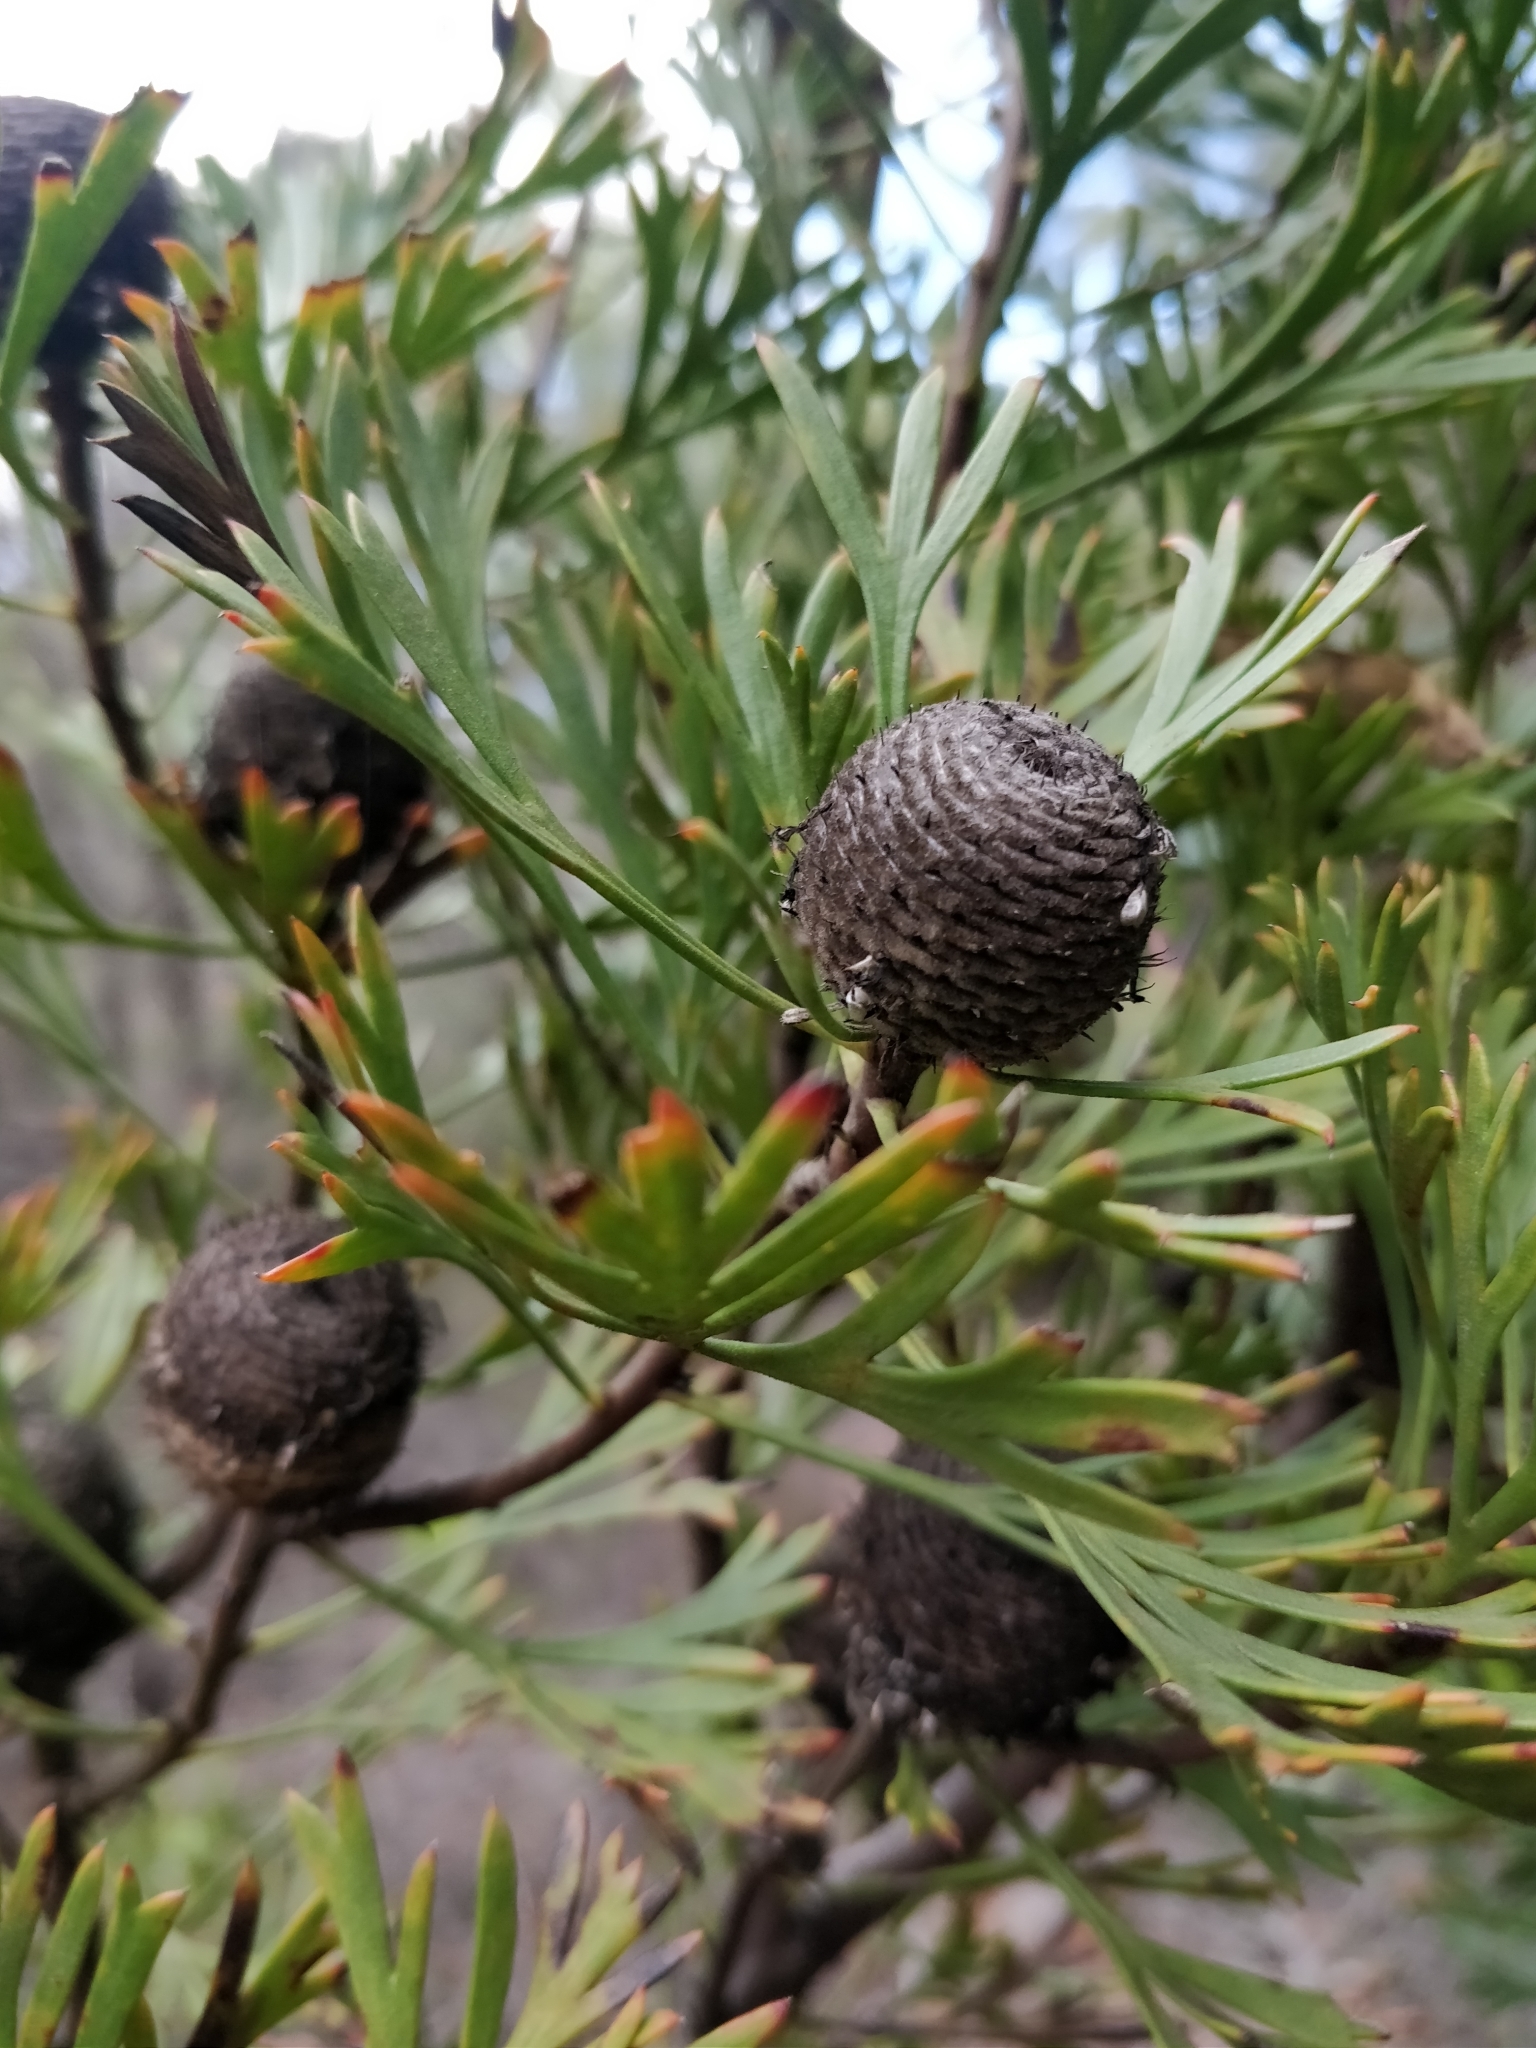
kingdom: Plantae
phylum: Tracheophyta
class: Magnoliopsida
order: Proteales
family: Proteaceae
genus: Isopogon
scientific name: Isopogon anemonifolius
